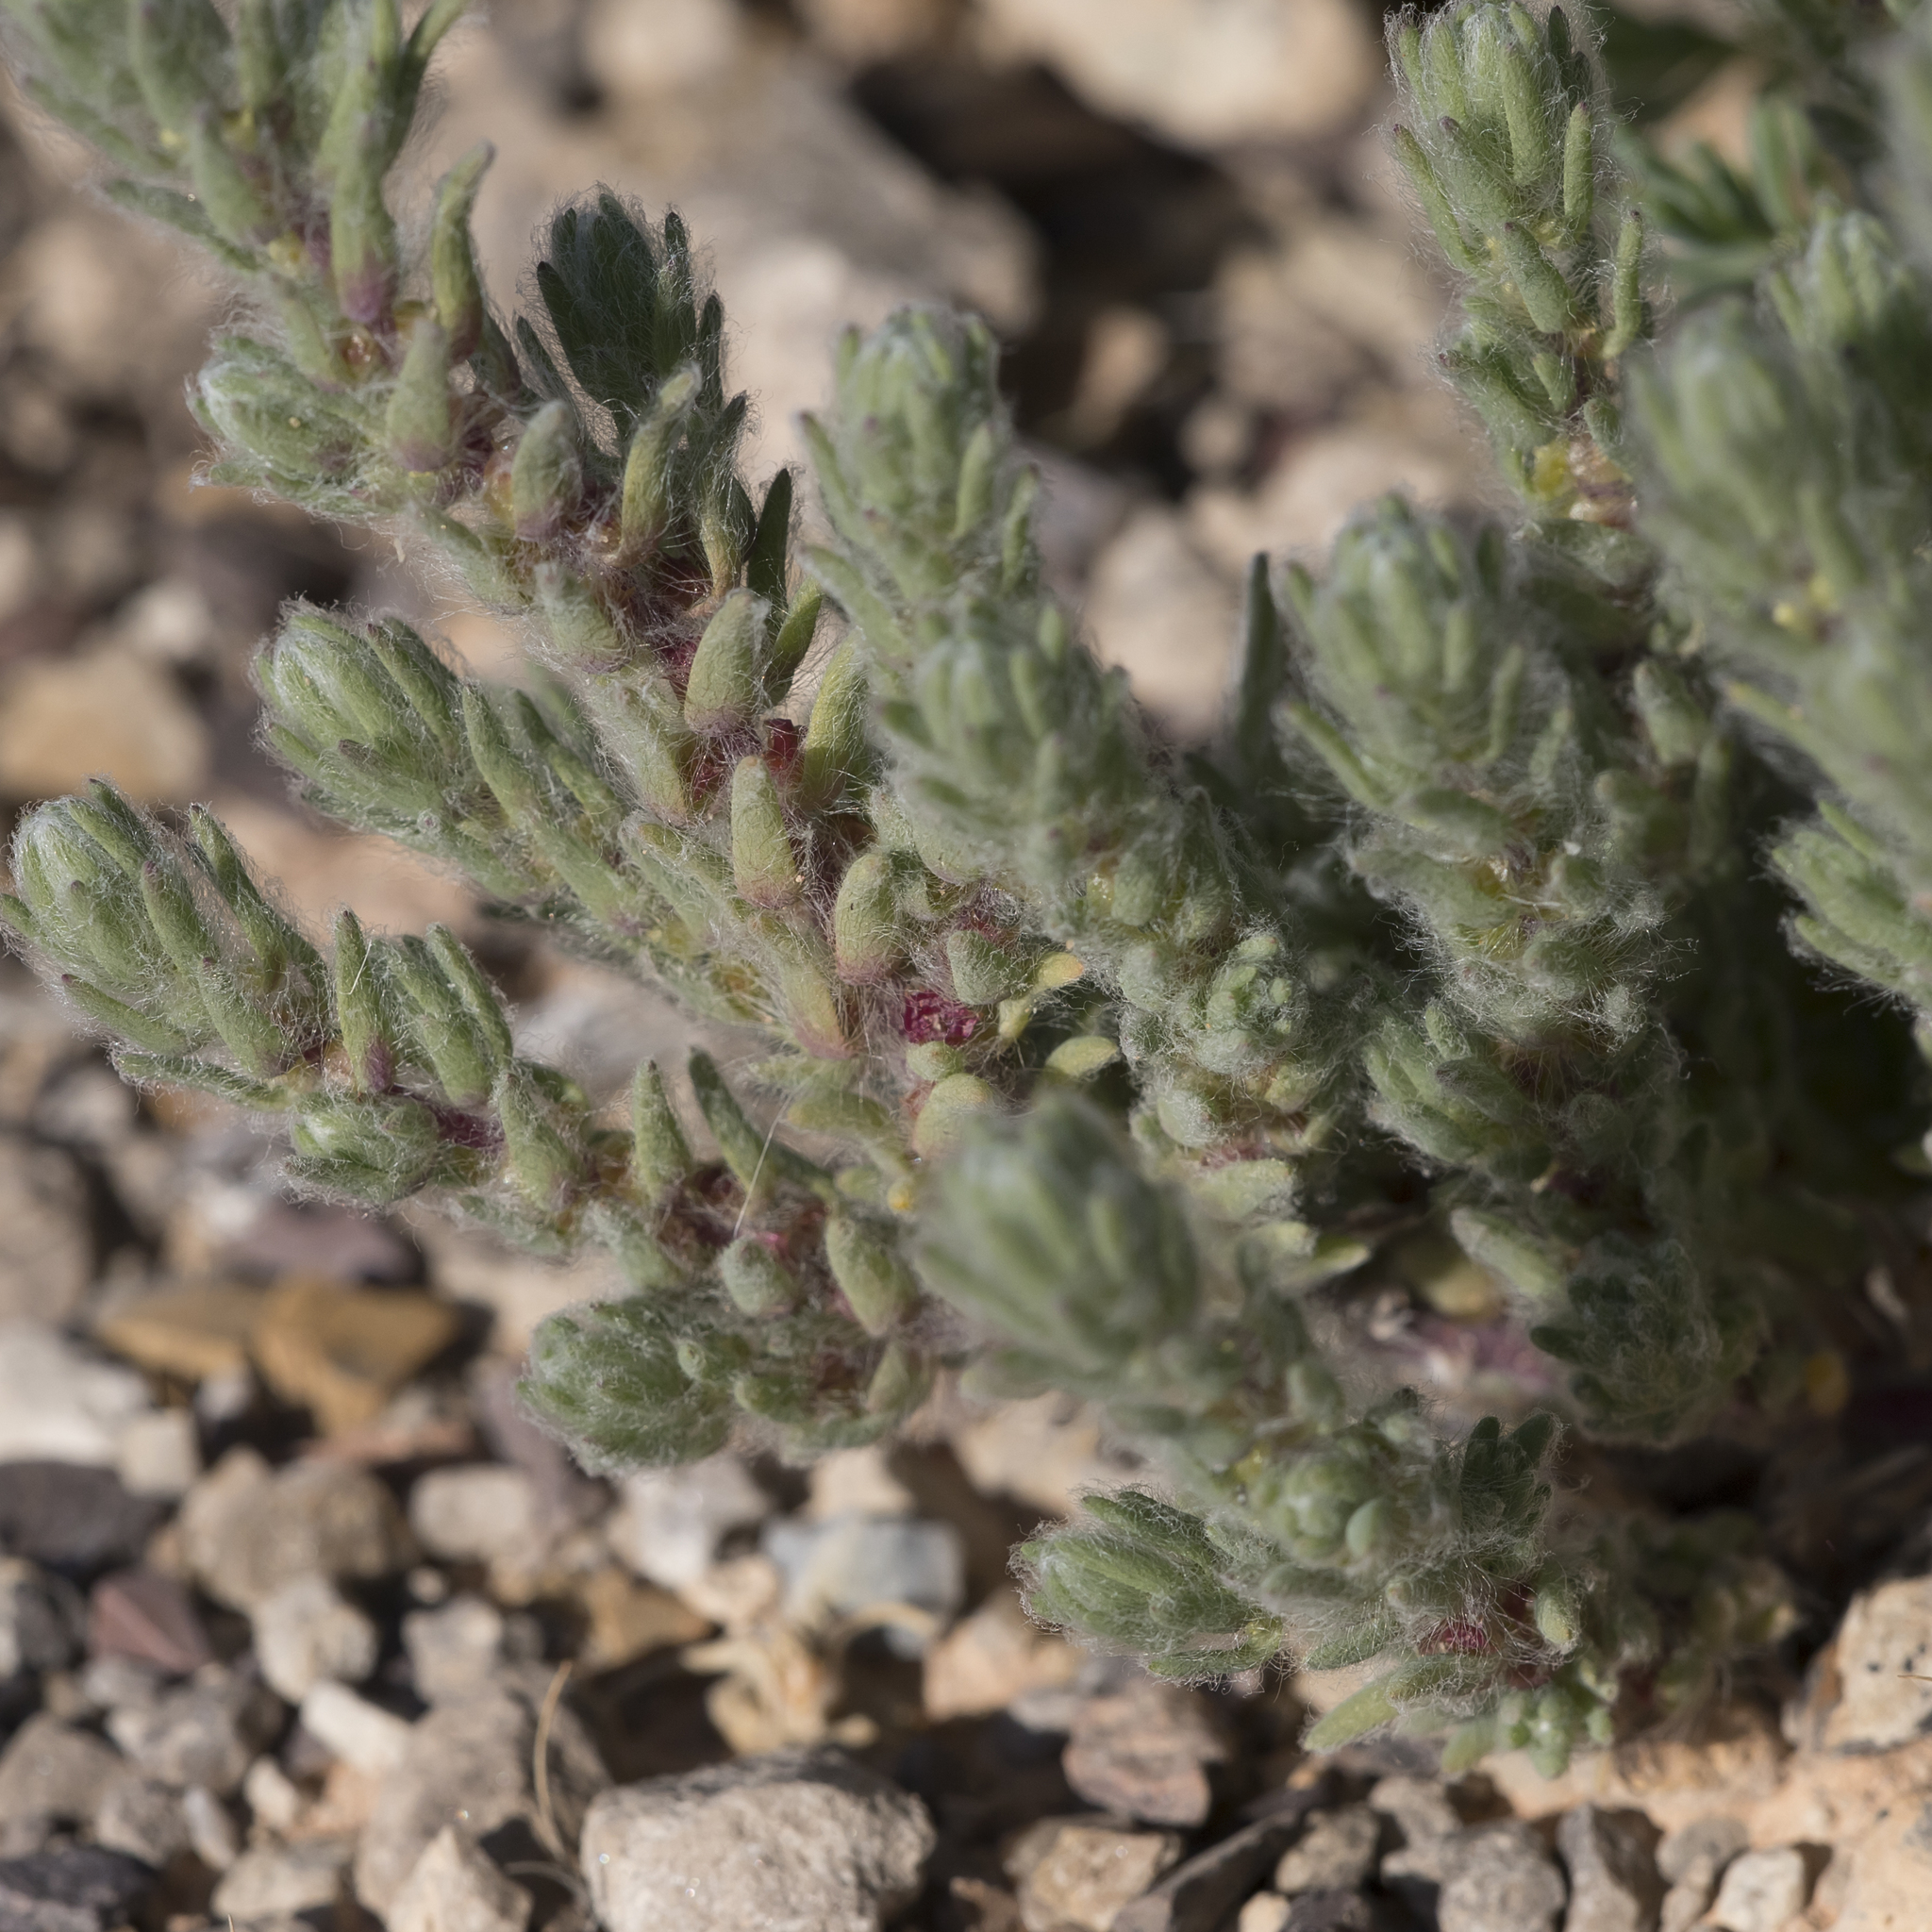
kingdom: Plantae
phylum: Tracheophyta
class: Magnoliopsida
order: Caryophyllales
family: Amaranthaceae
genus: Sclerolaena
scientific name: Sclerolaena brachyptera
